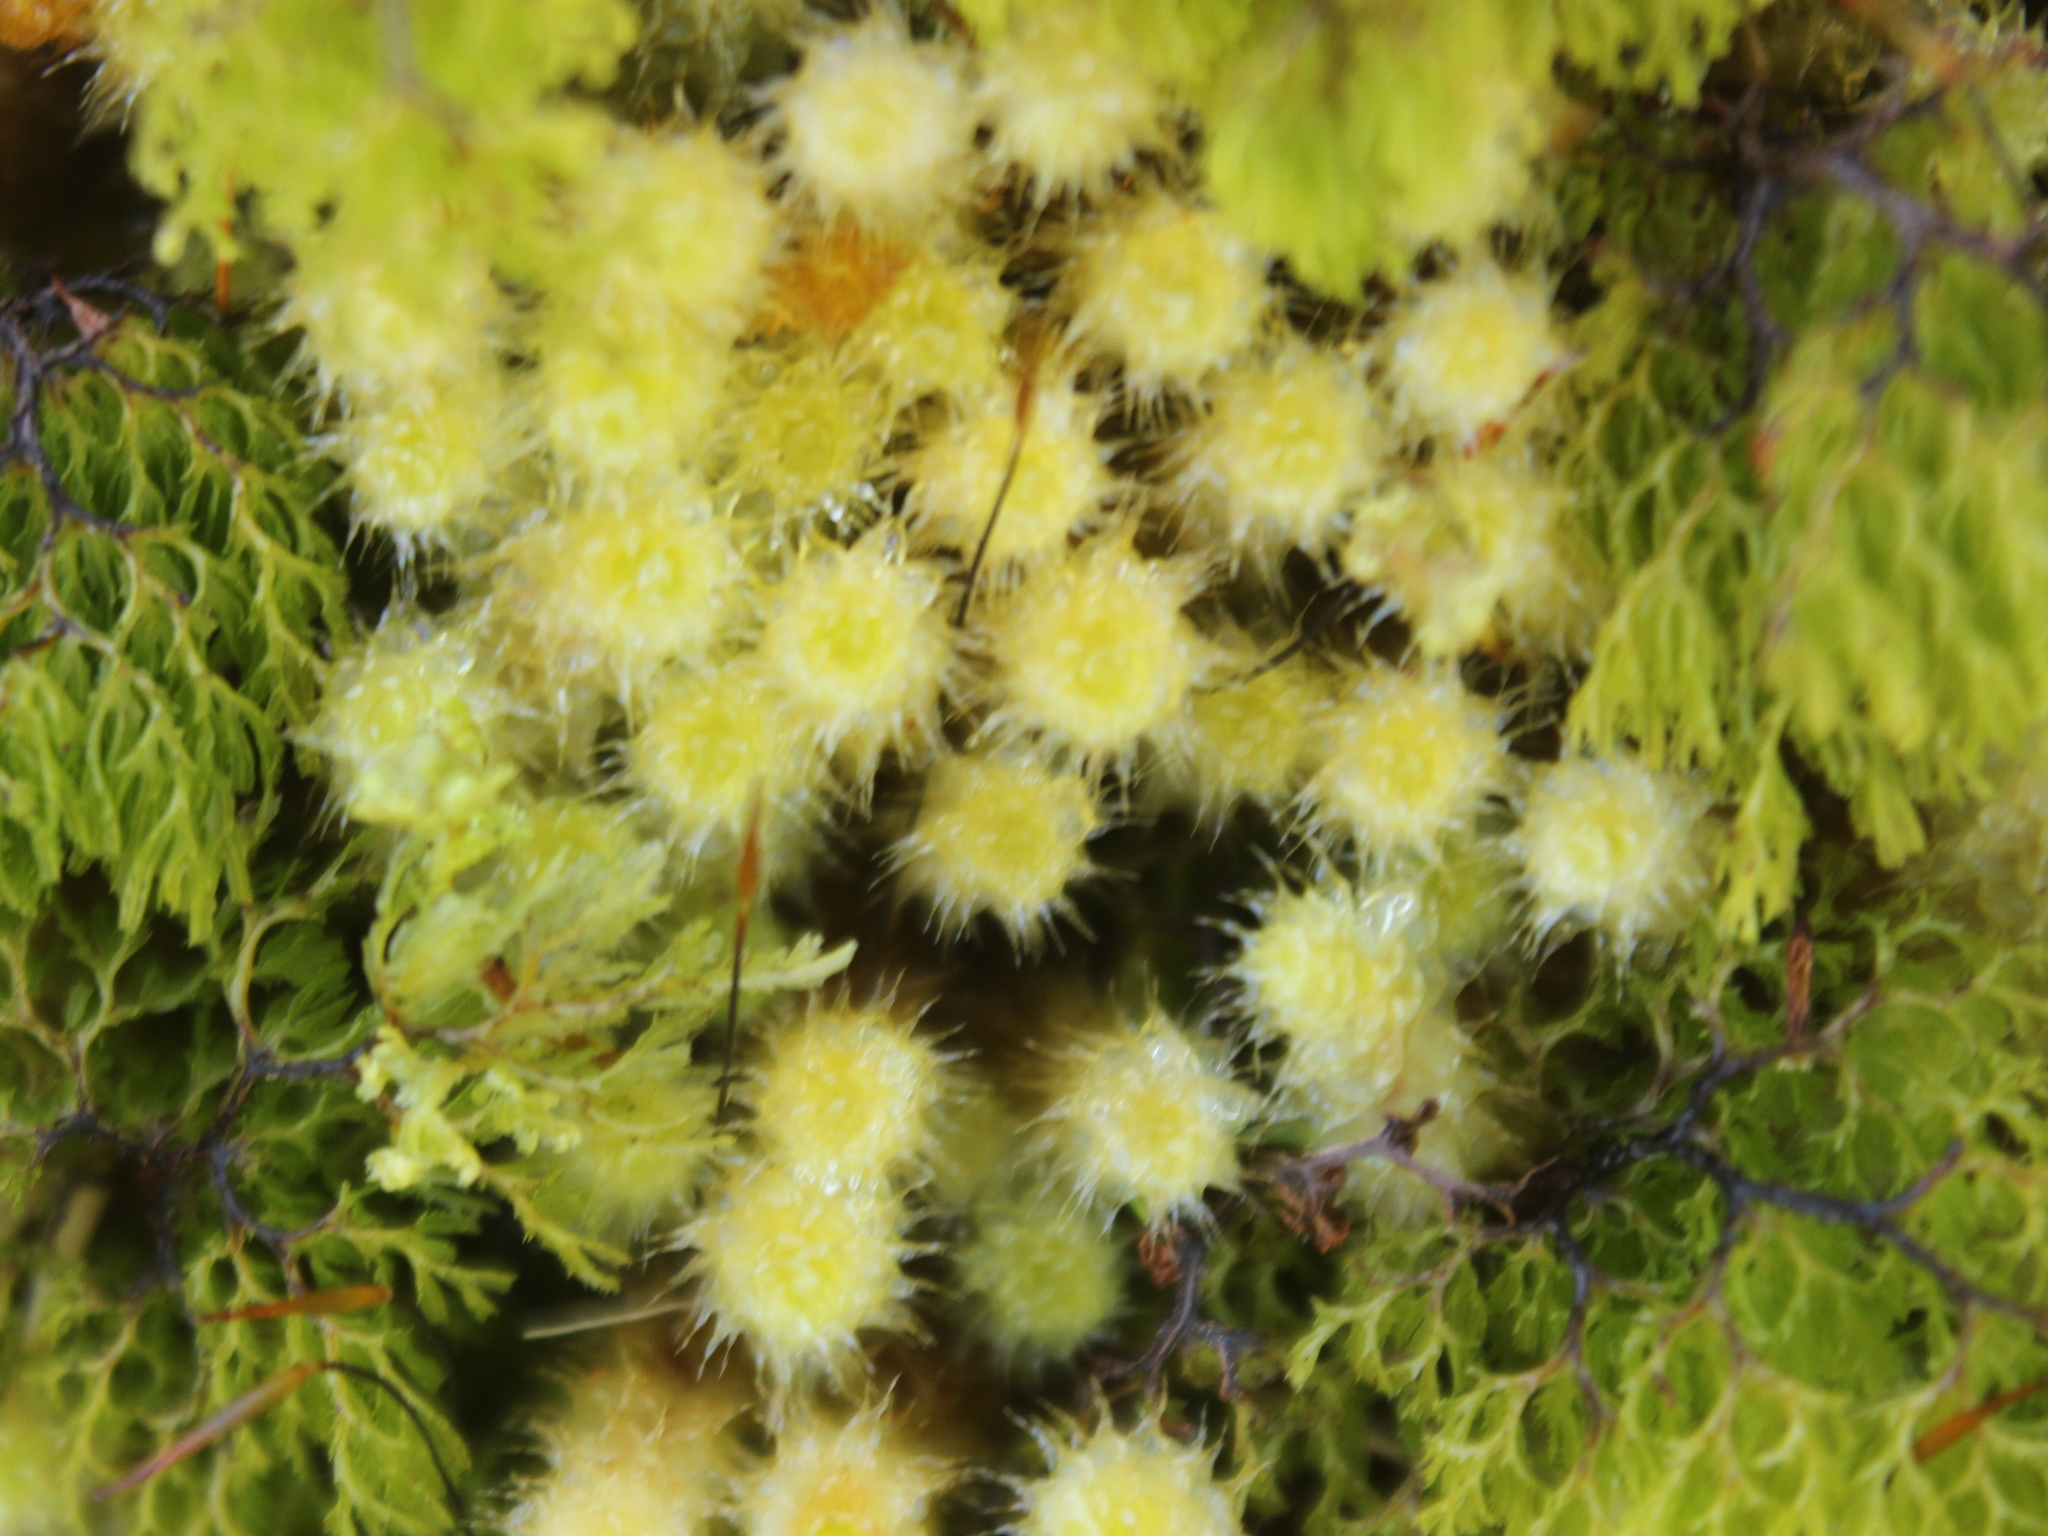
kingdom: Plantae
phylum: Bryophyta
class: Bryopsida
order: Ptychomniales
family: Ptychomniaceae
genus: Ptychomnion
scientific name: Ptychomnion aciculare
